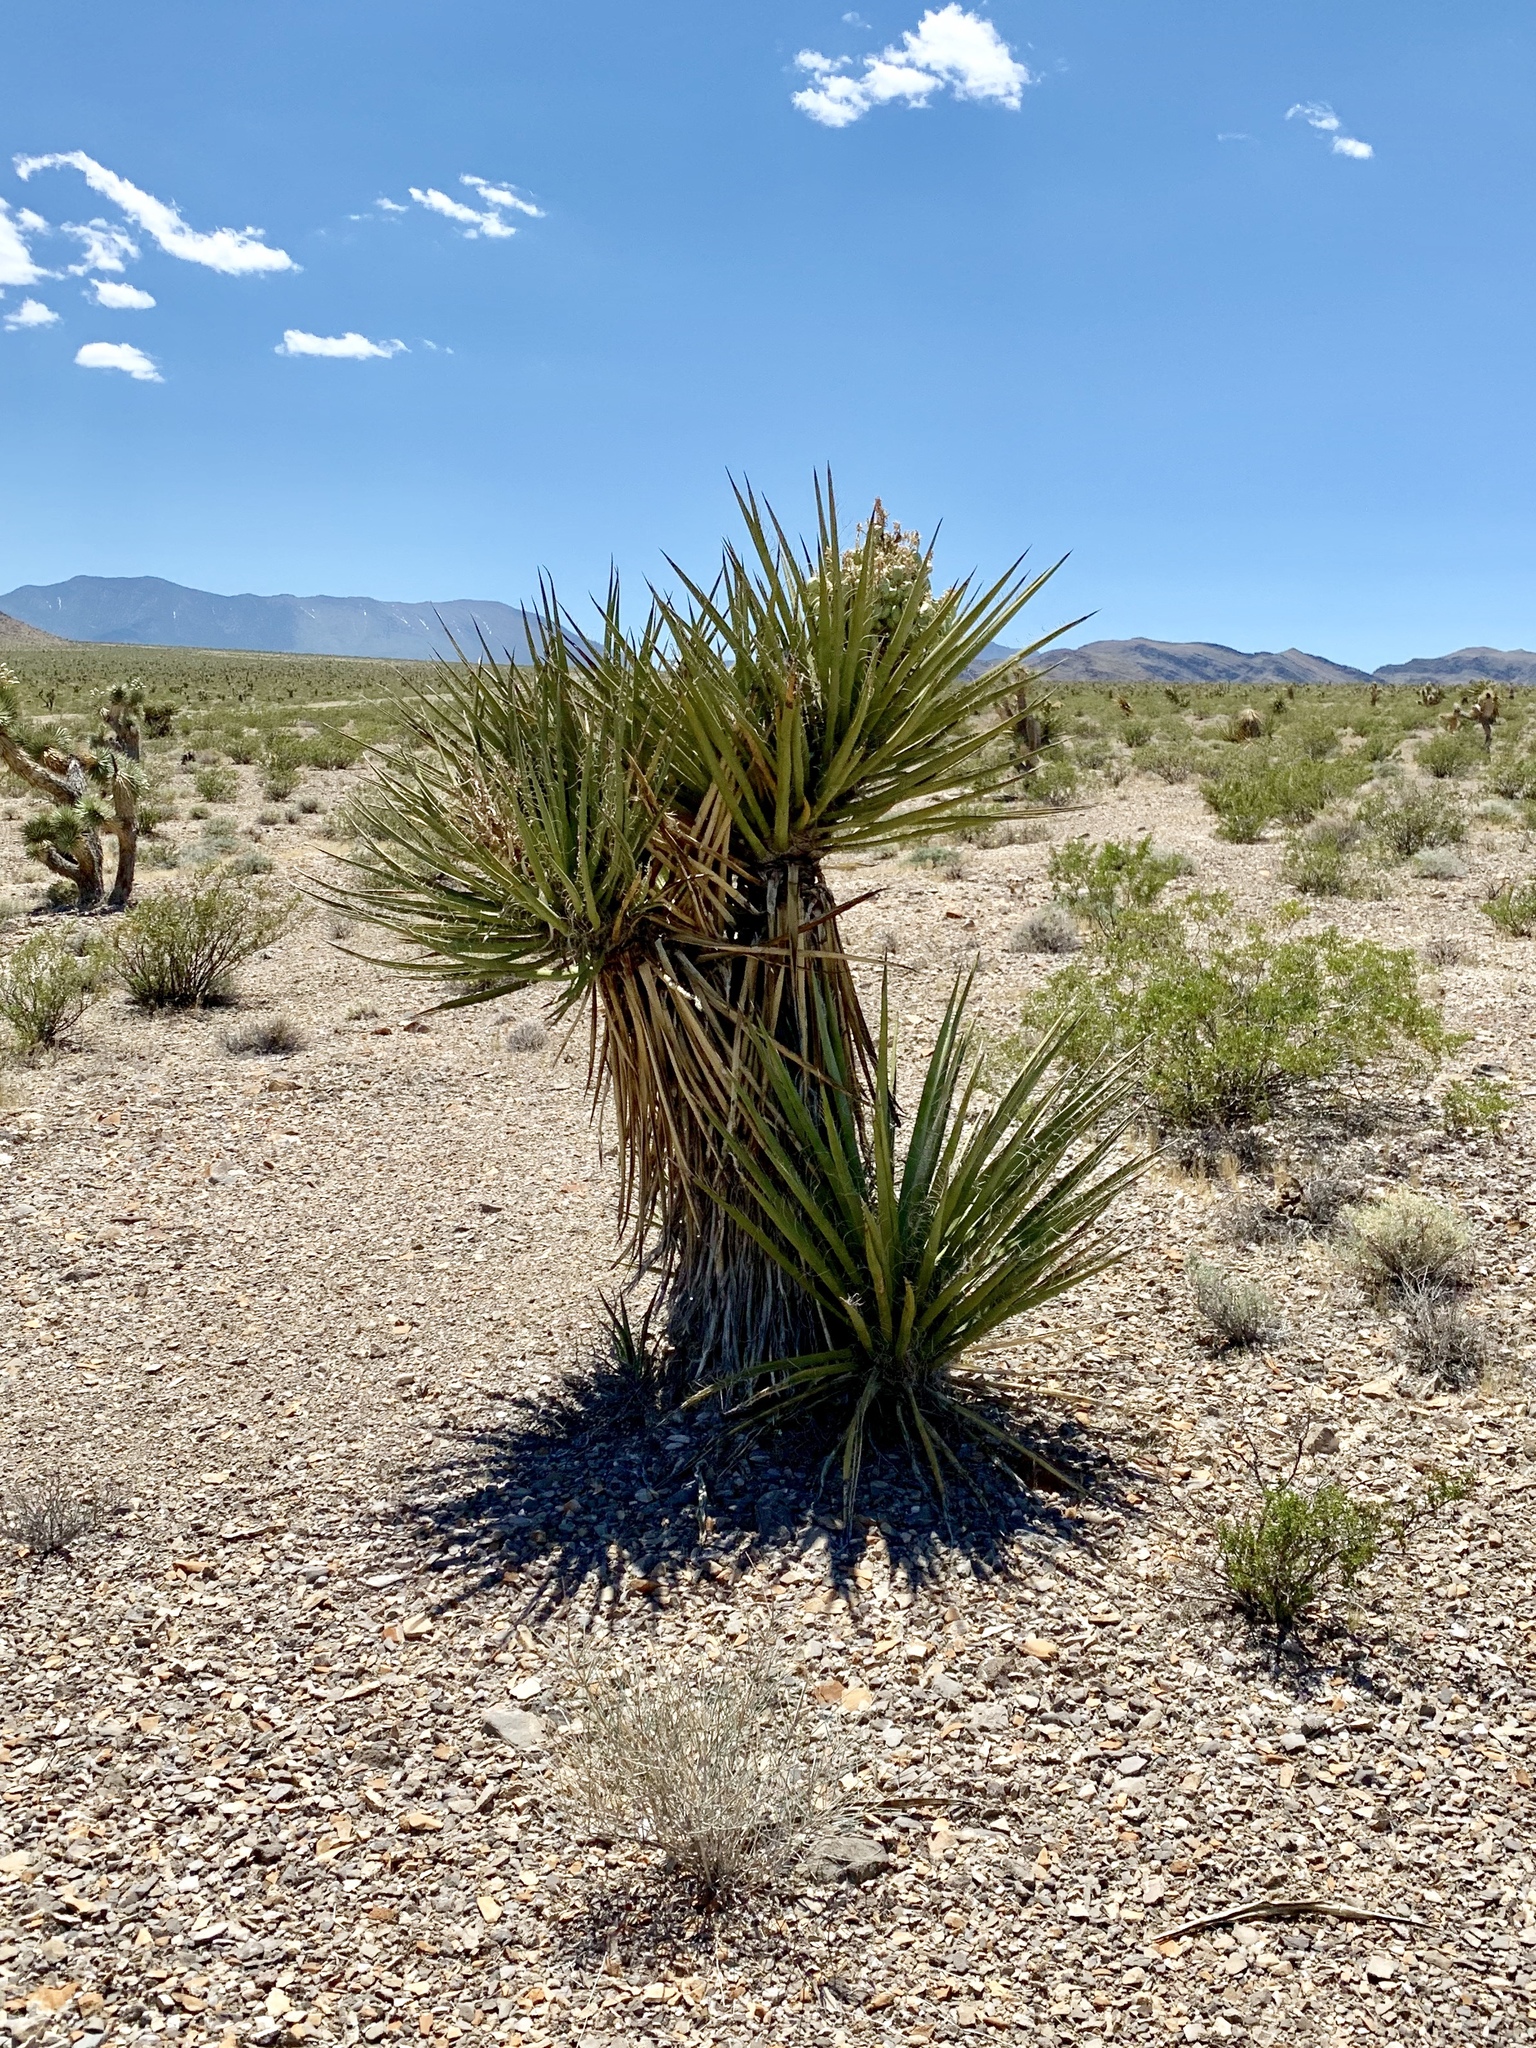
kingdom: Plantae
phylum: Tracheophyta
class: Liliopsida
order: Asparagales
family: Asparagaceae
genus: Yucca
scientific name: Yucca schidigera
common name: Mojave yucca
